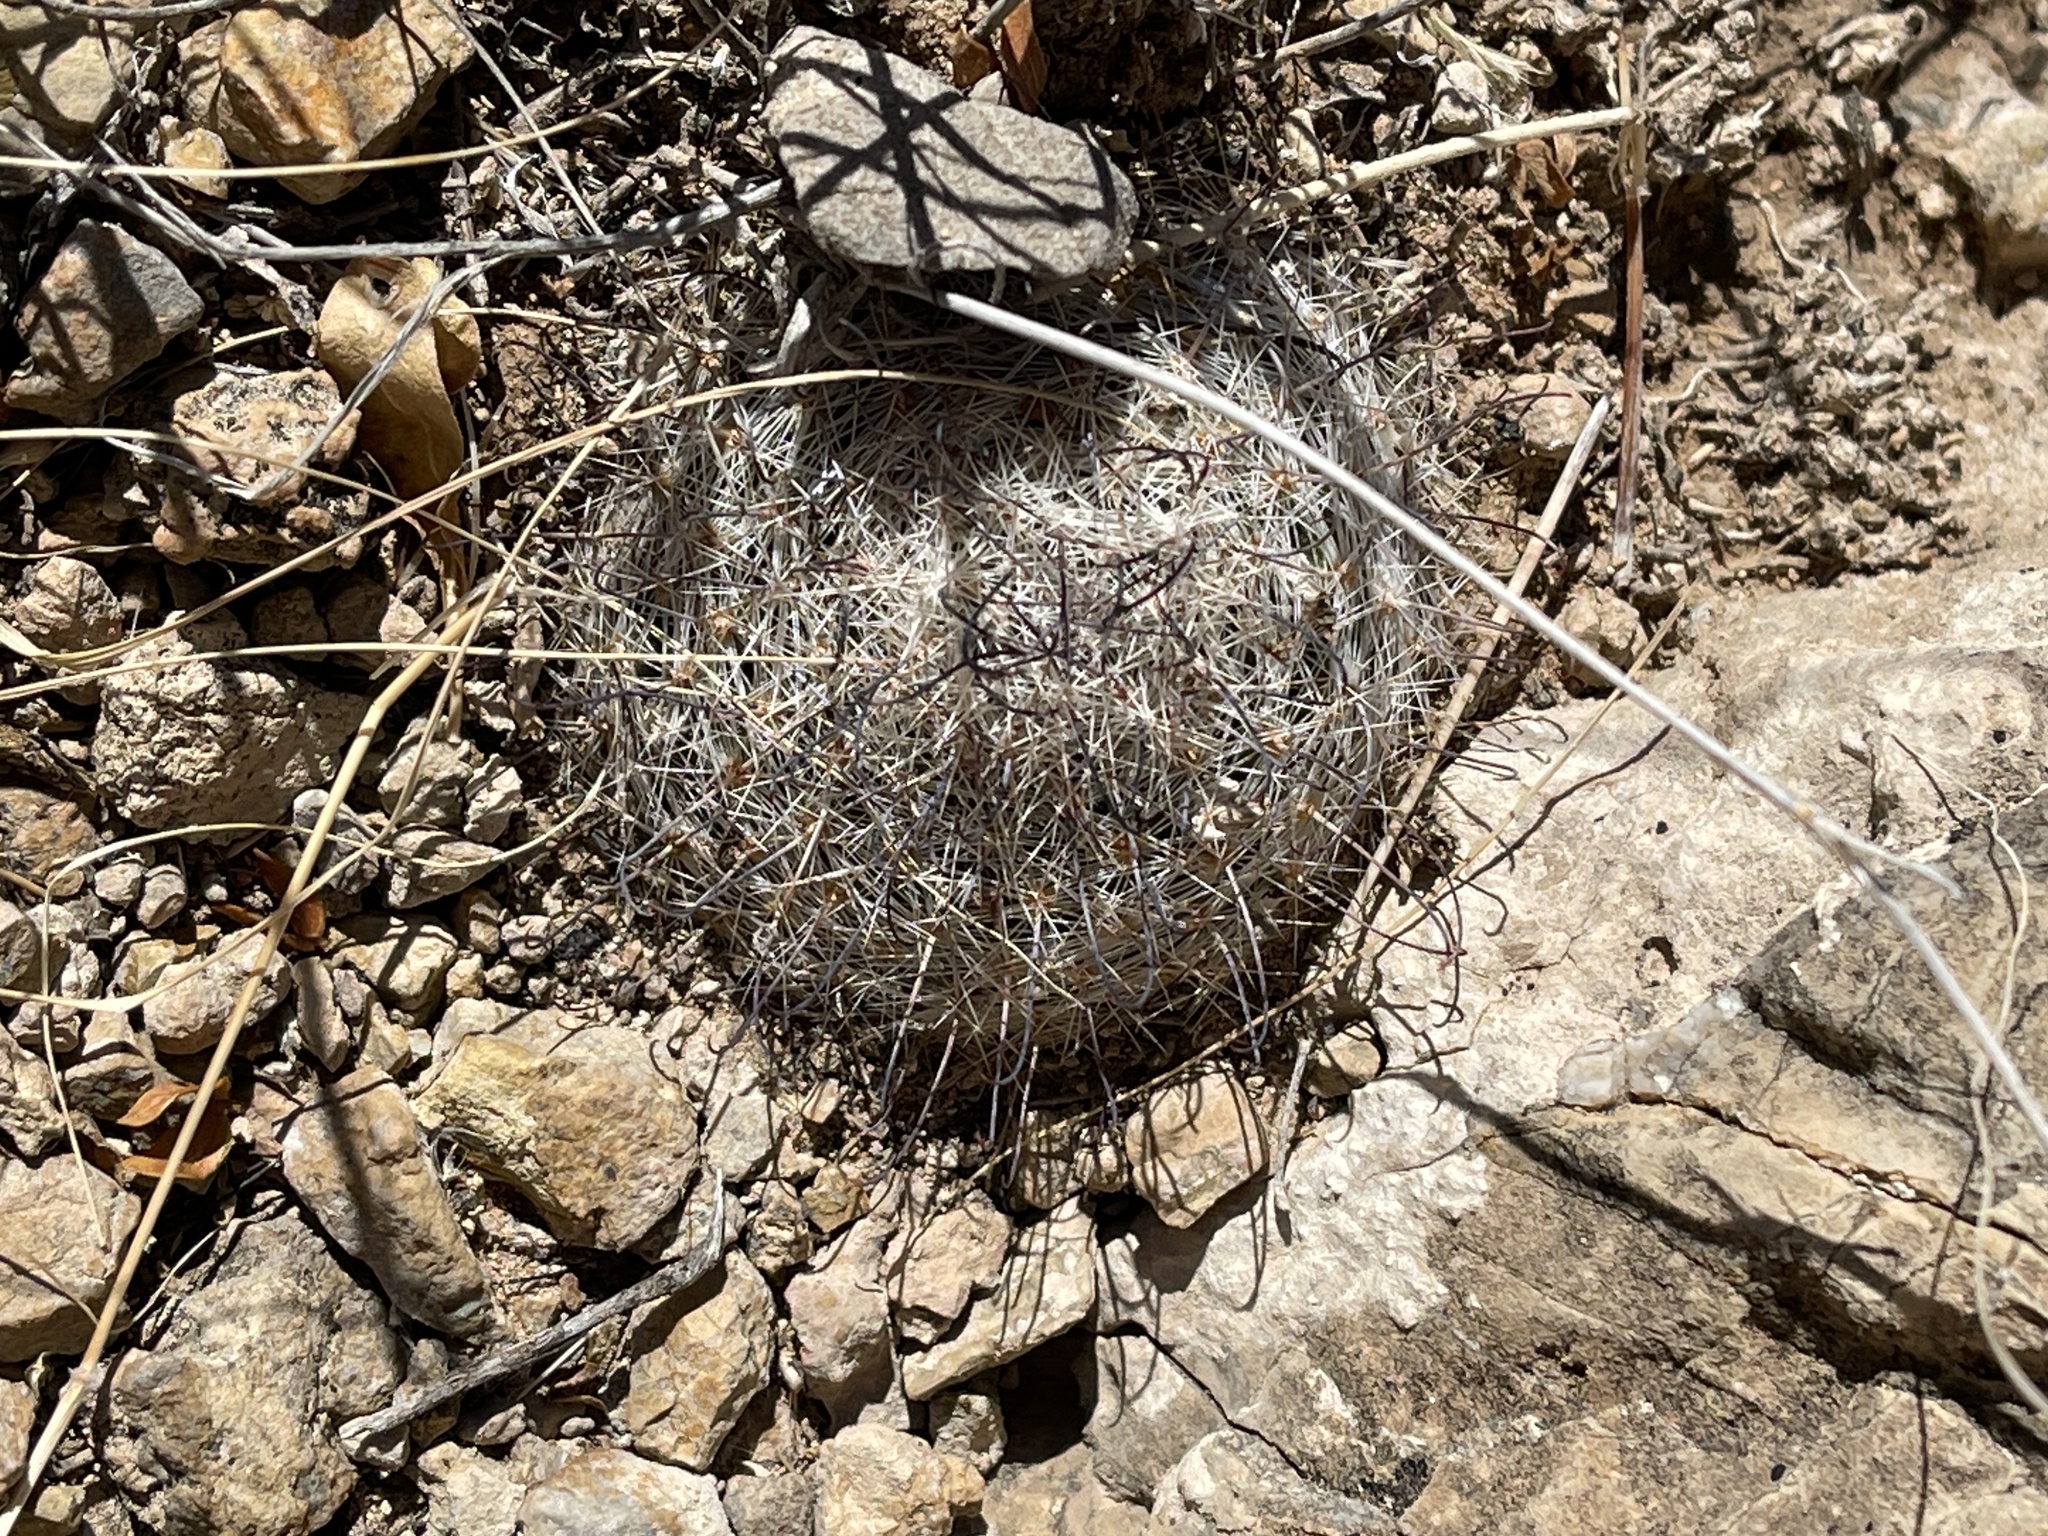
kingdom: Plantae
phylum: Tracheophyta
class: Magnoliopsida
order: Caryophyllales
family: Cactaceae
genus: Cochemiea
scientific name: Cochemiea grahamii
